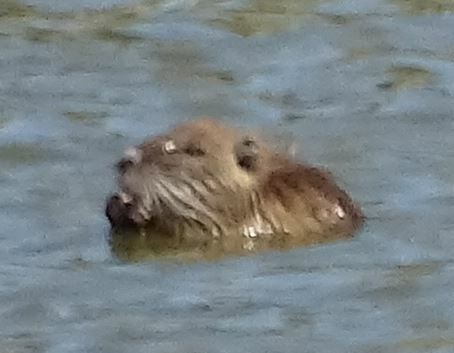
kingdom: Animalia
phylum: Chordata
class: Mammalia
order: Rodentia
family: Myocastoridae
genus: Myocastor
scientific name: Myocastor coypus
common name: Coypu
